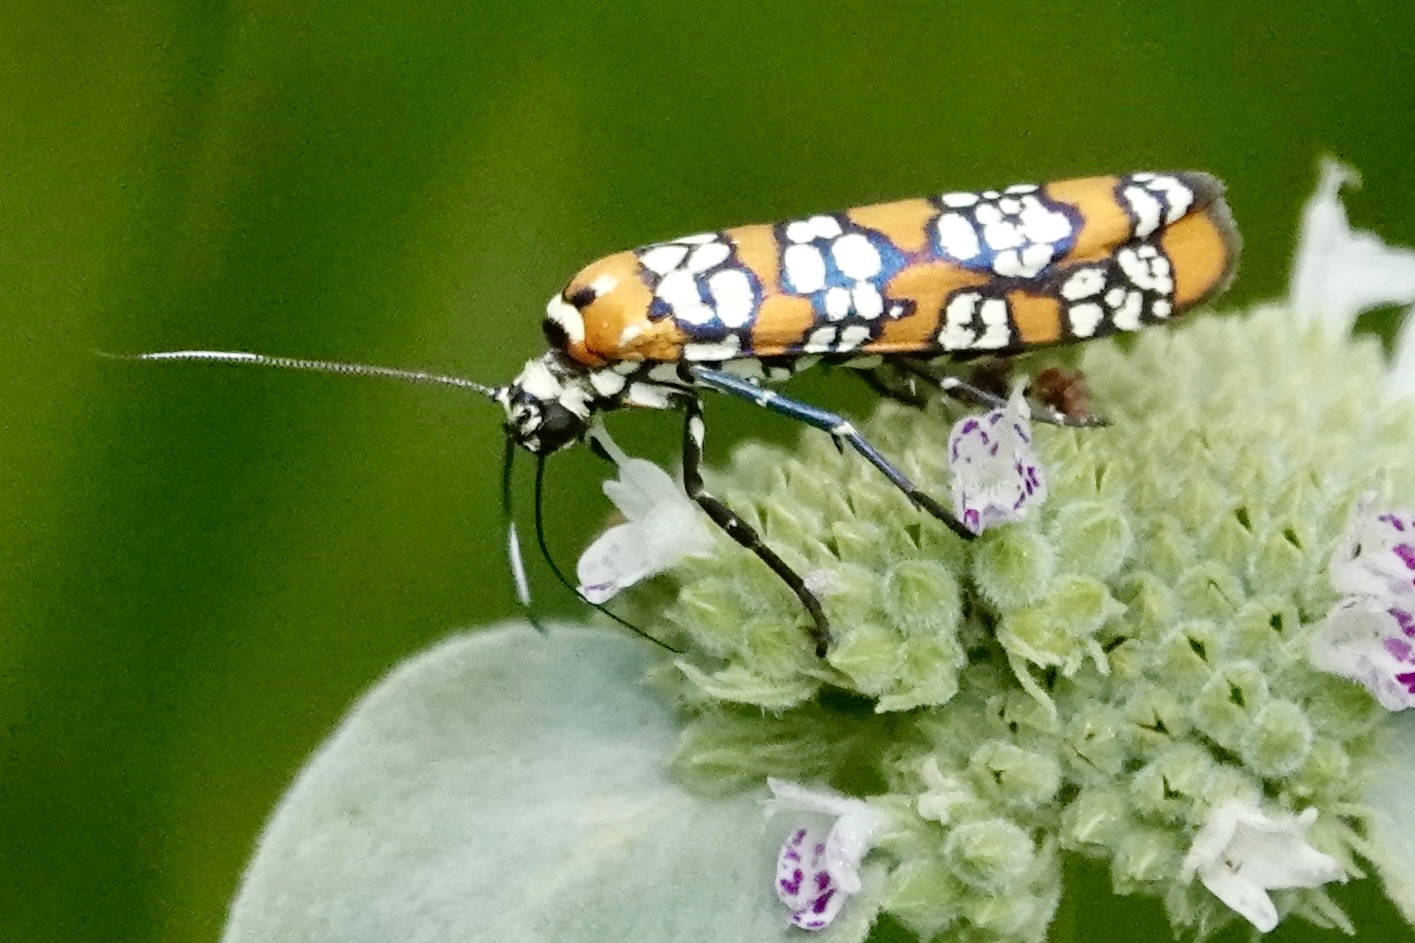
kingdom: Animalia
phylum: Arthropoda
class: Insecta
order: Lepidoptera
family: Attevidae
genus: Atteva
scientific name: Atteva punctella
